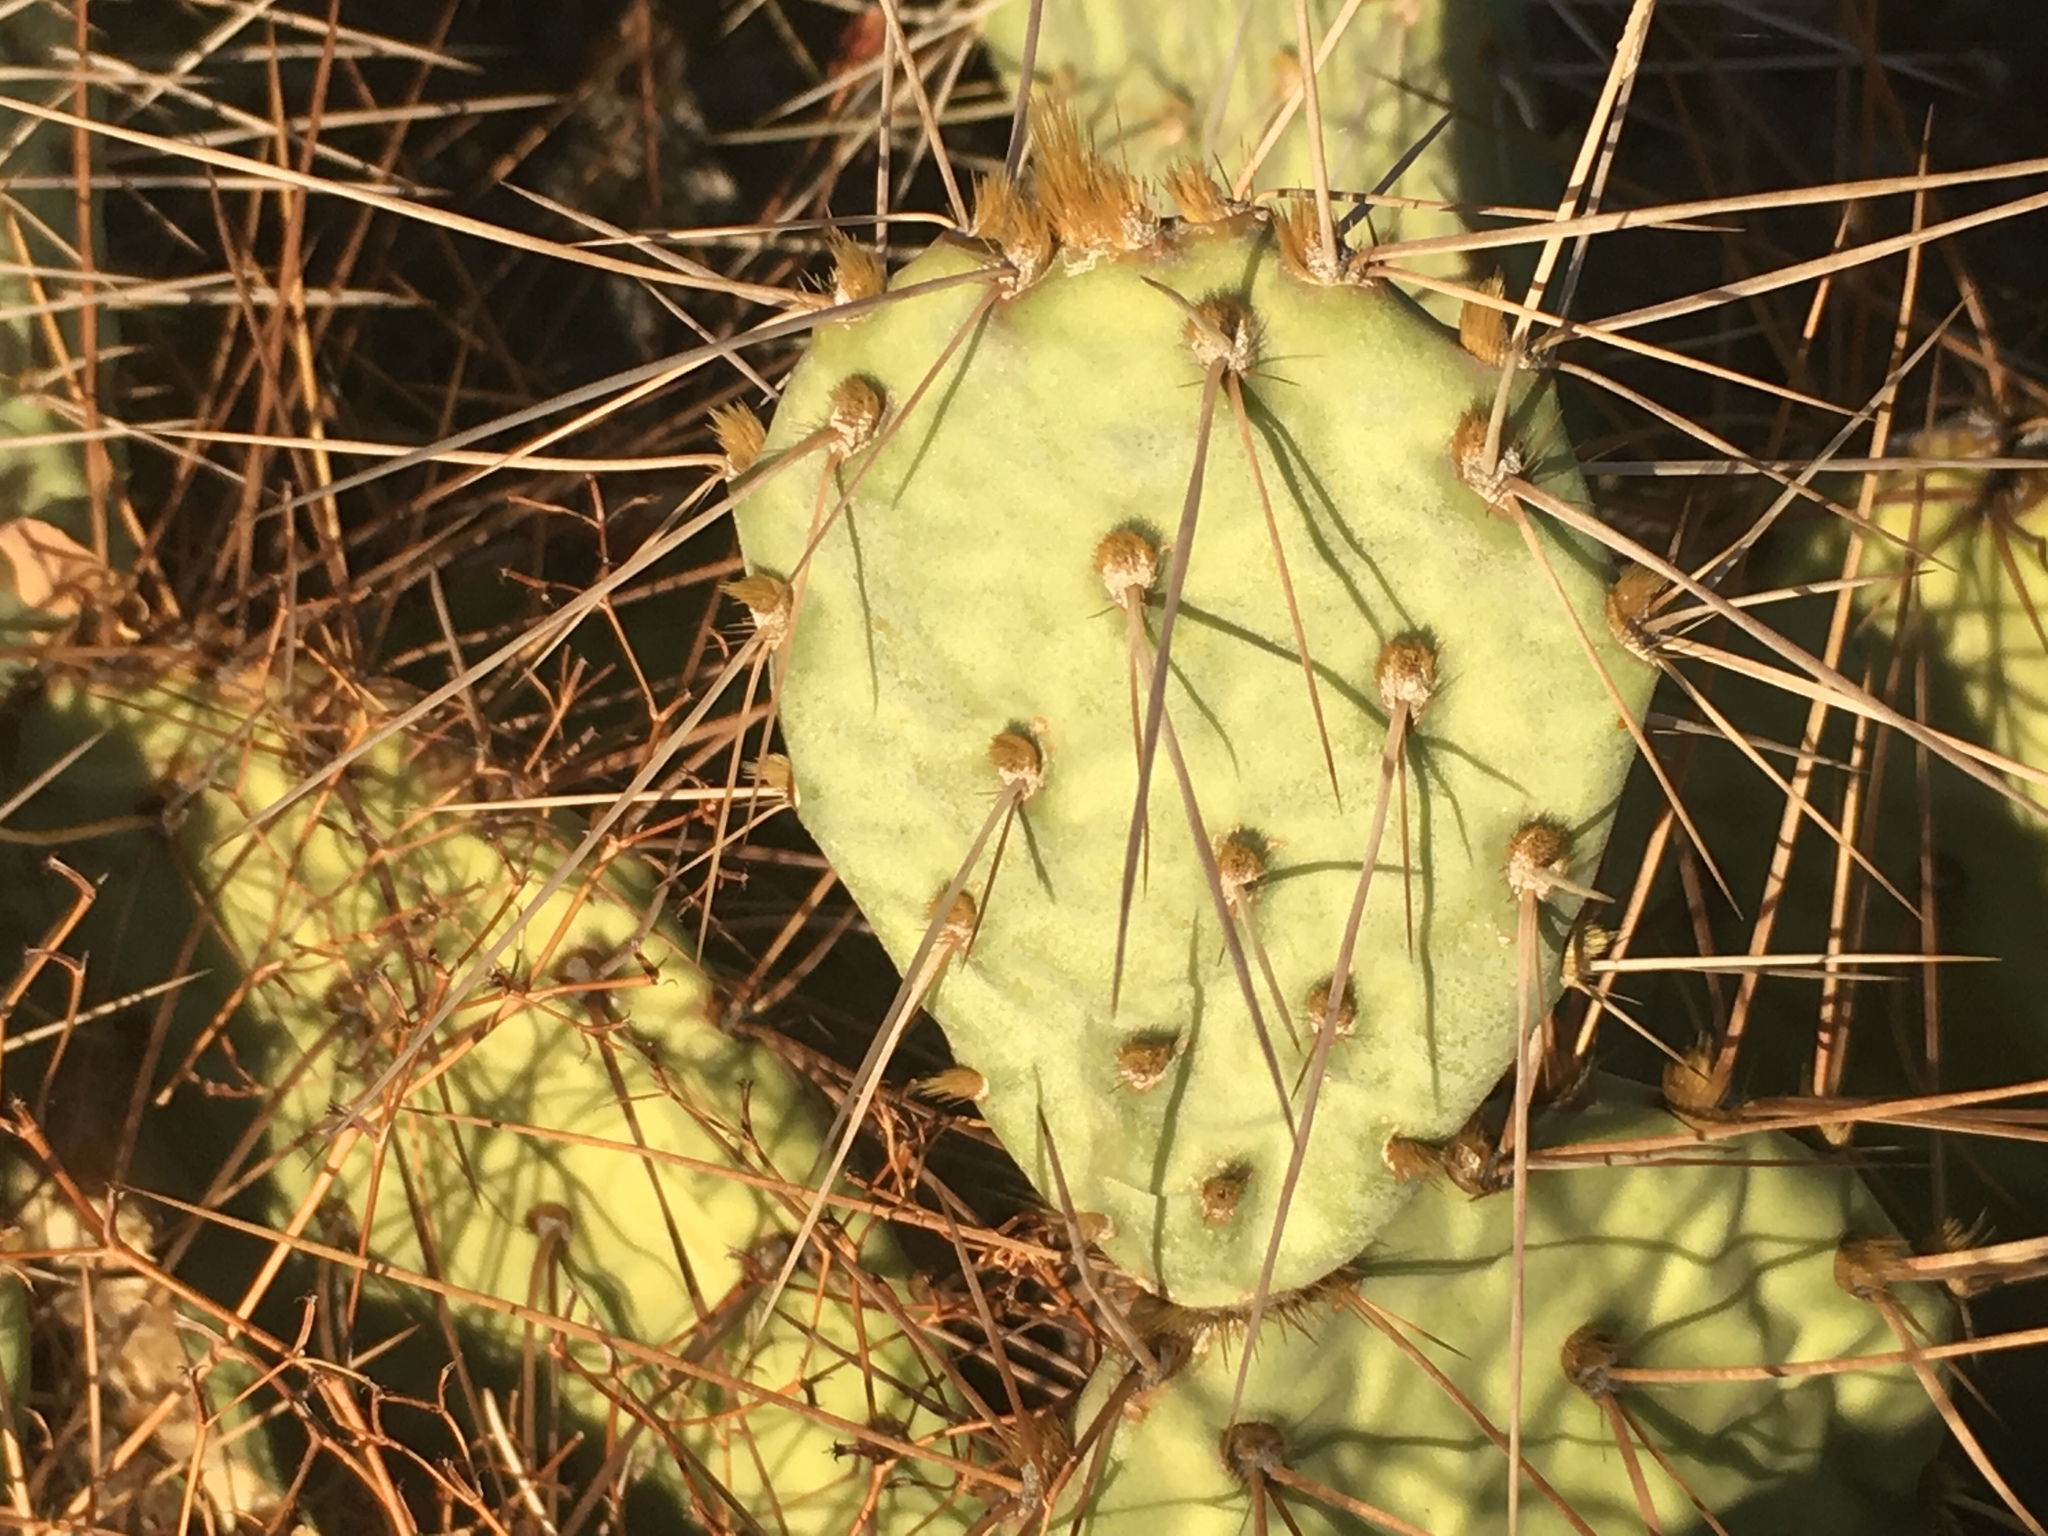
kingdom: Plantae
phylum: Tracheophyta
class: Magnoliopsida
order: Caryophyllales
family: Cactaceae
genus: Opuntia
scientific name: Opuntia phaeacantha
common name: New mexico prickly-pear
